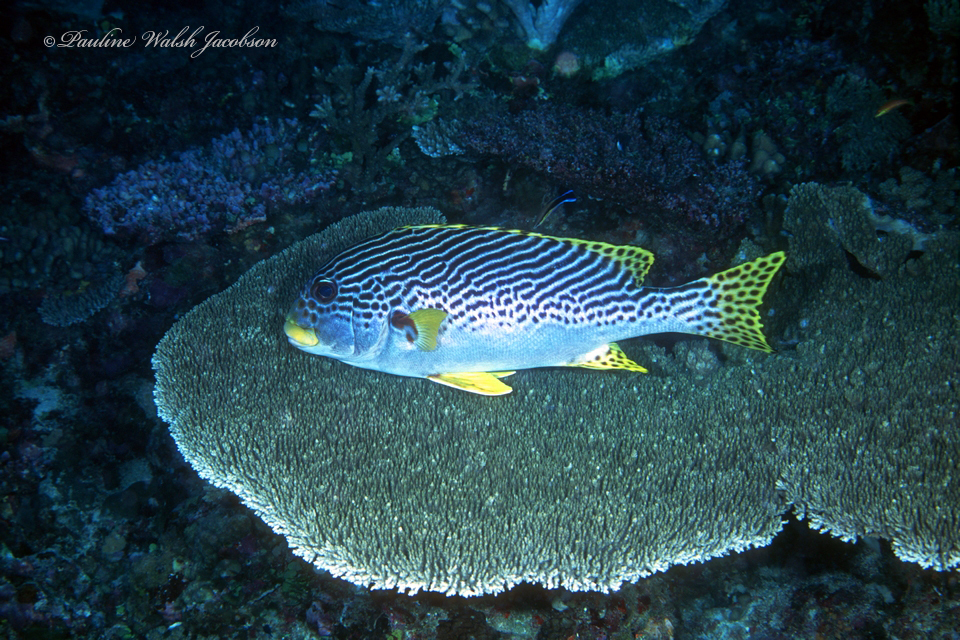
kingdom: Animalia
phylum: Chordata
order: Perciformes
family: Haemulidae
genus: Plectorhinchus
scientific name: Plectorhinchus lineatus
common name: Goldman's sweetlips
